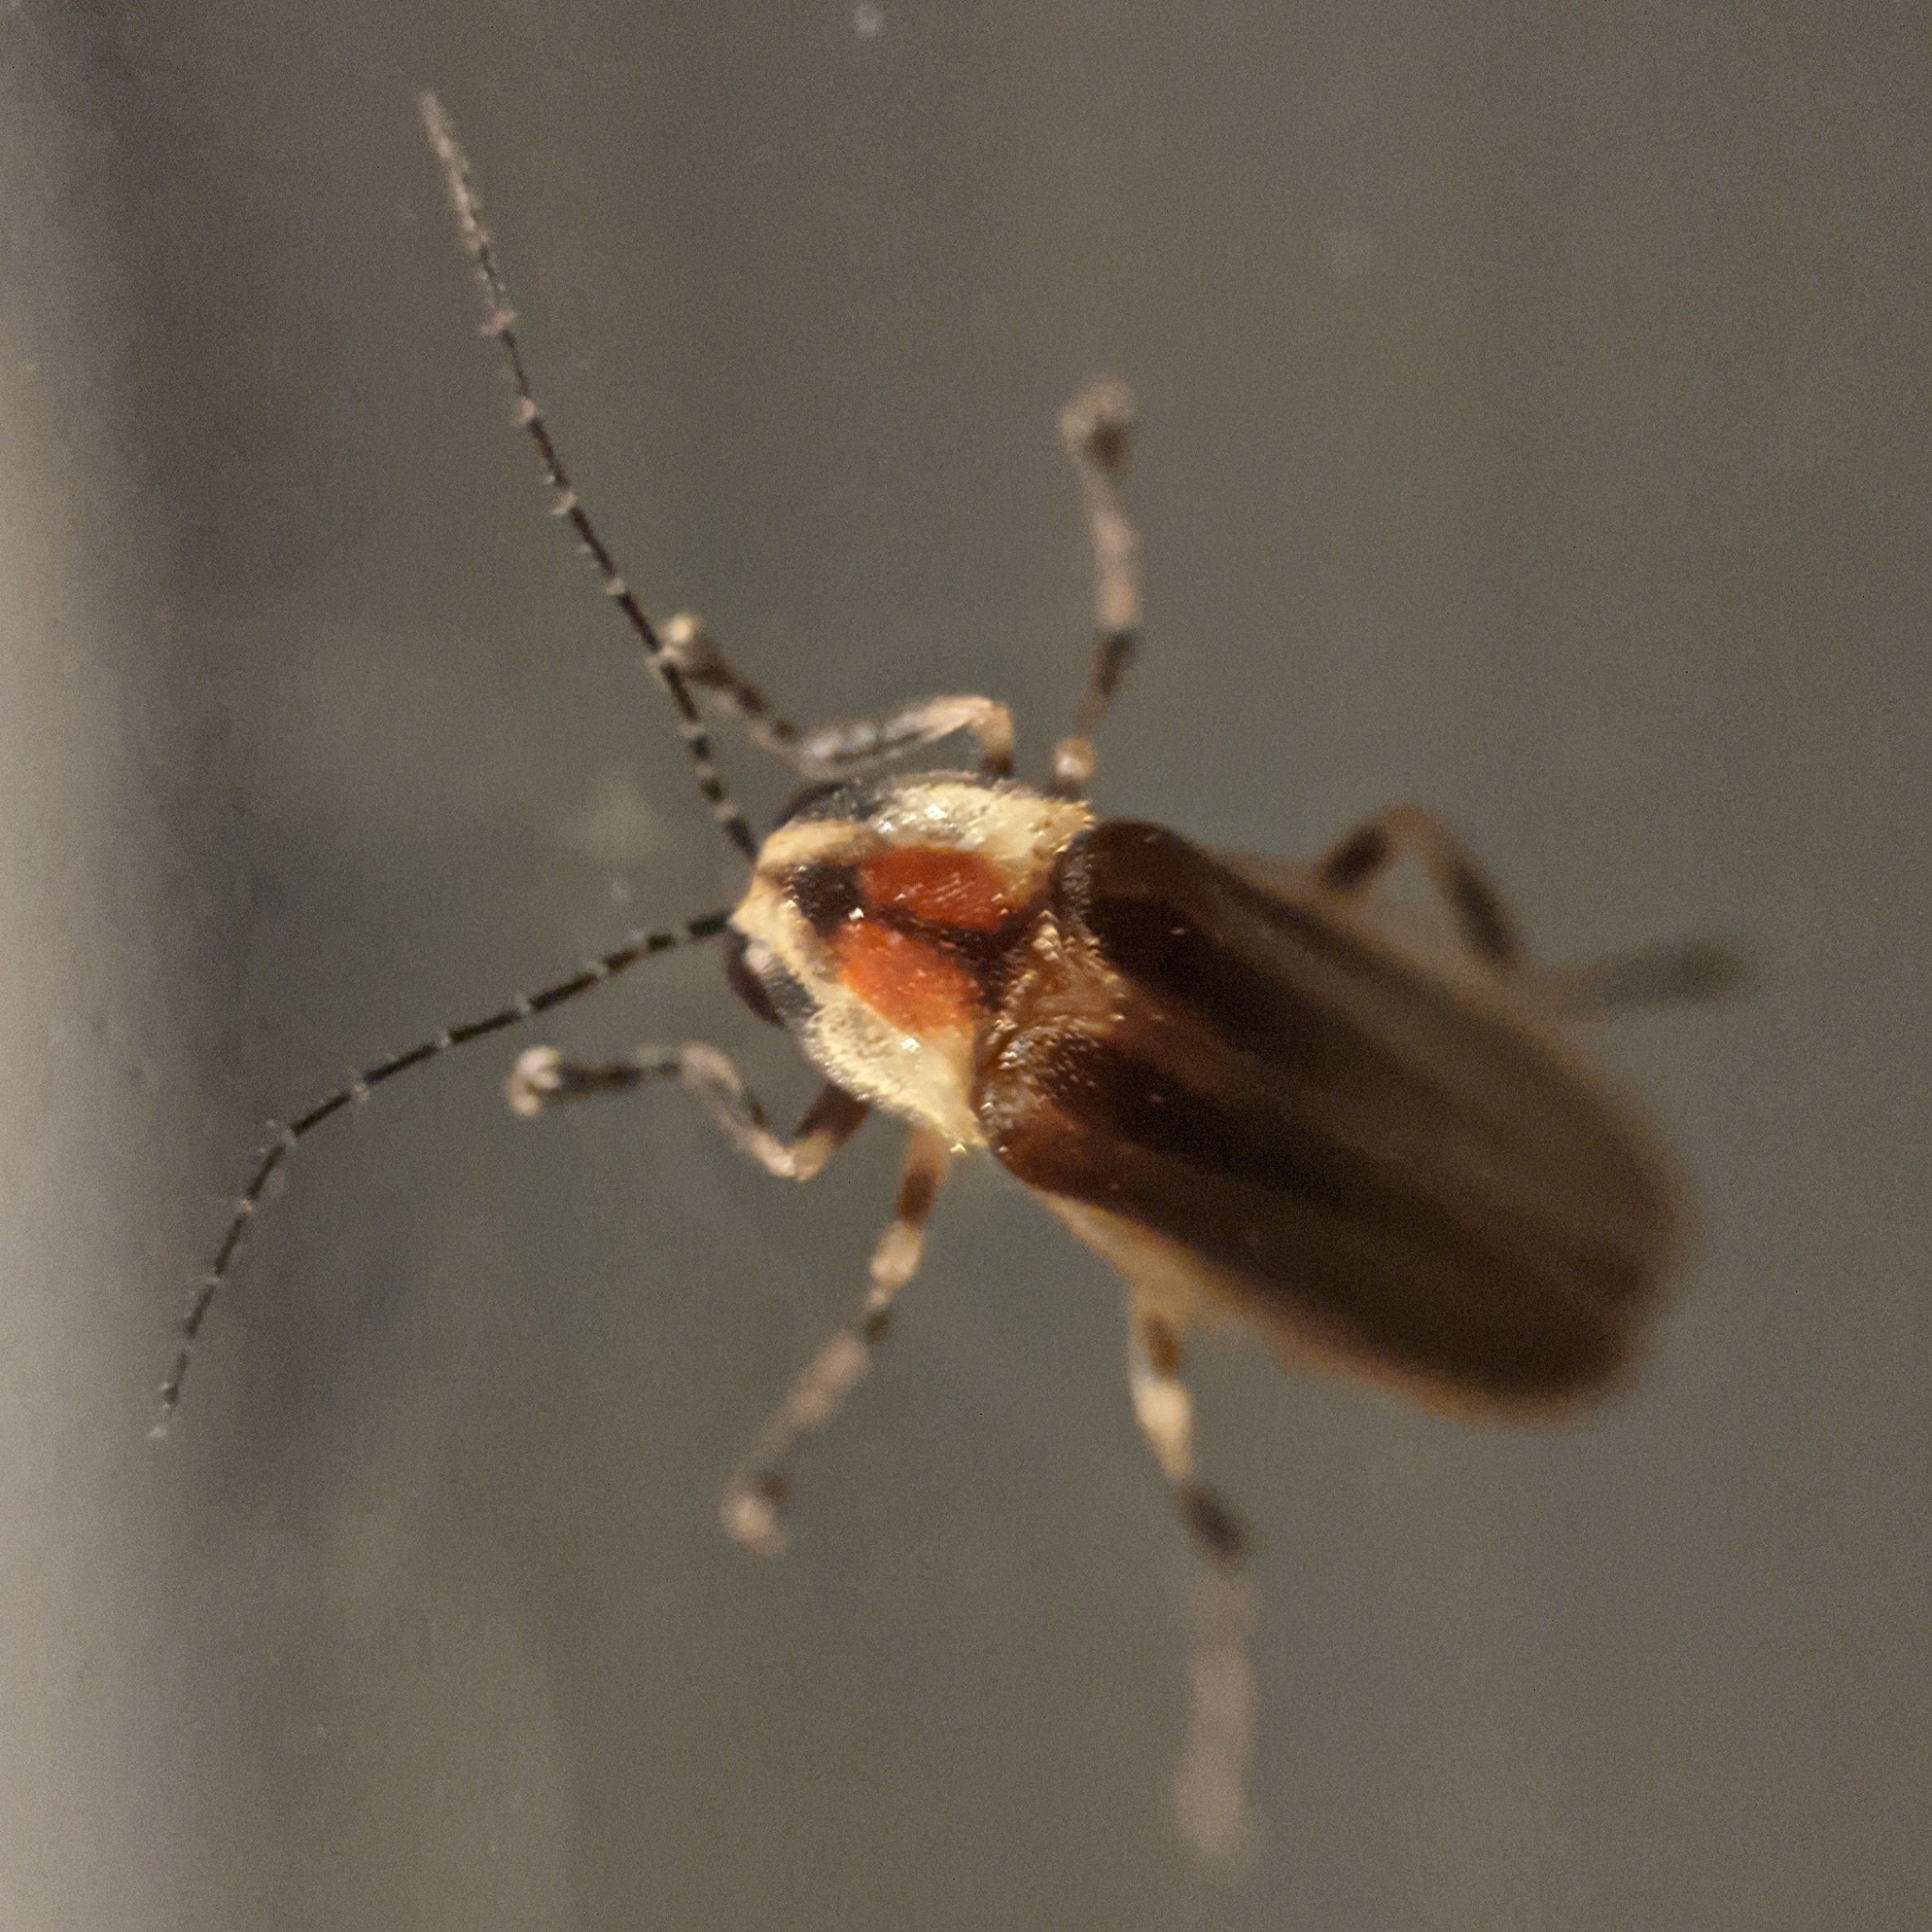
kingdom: Animalia
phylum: Arthropoda
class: Insecta
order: Coleoptera
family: Lampyridae
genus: Photuris
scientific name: Photuris
